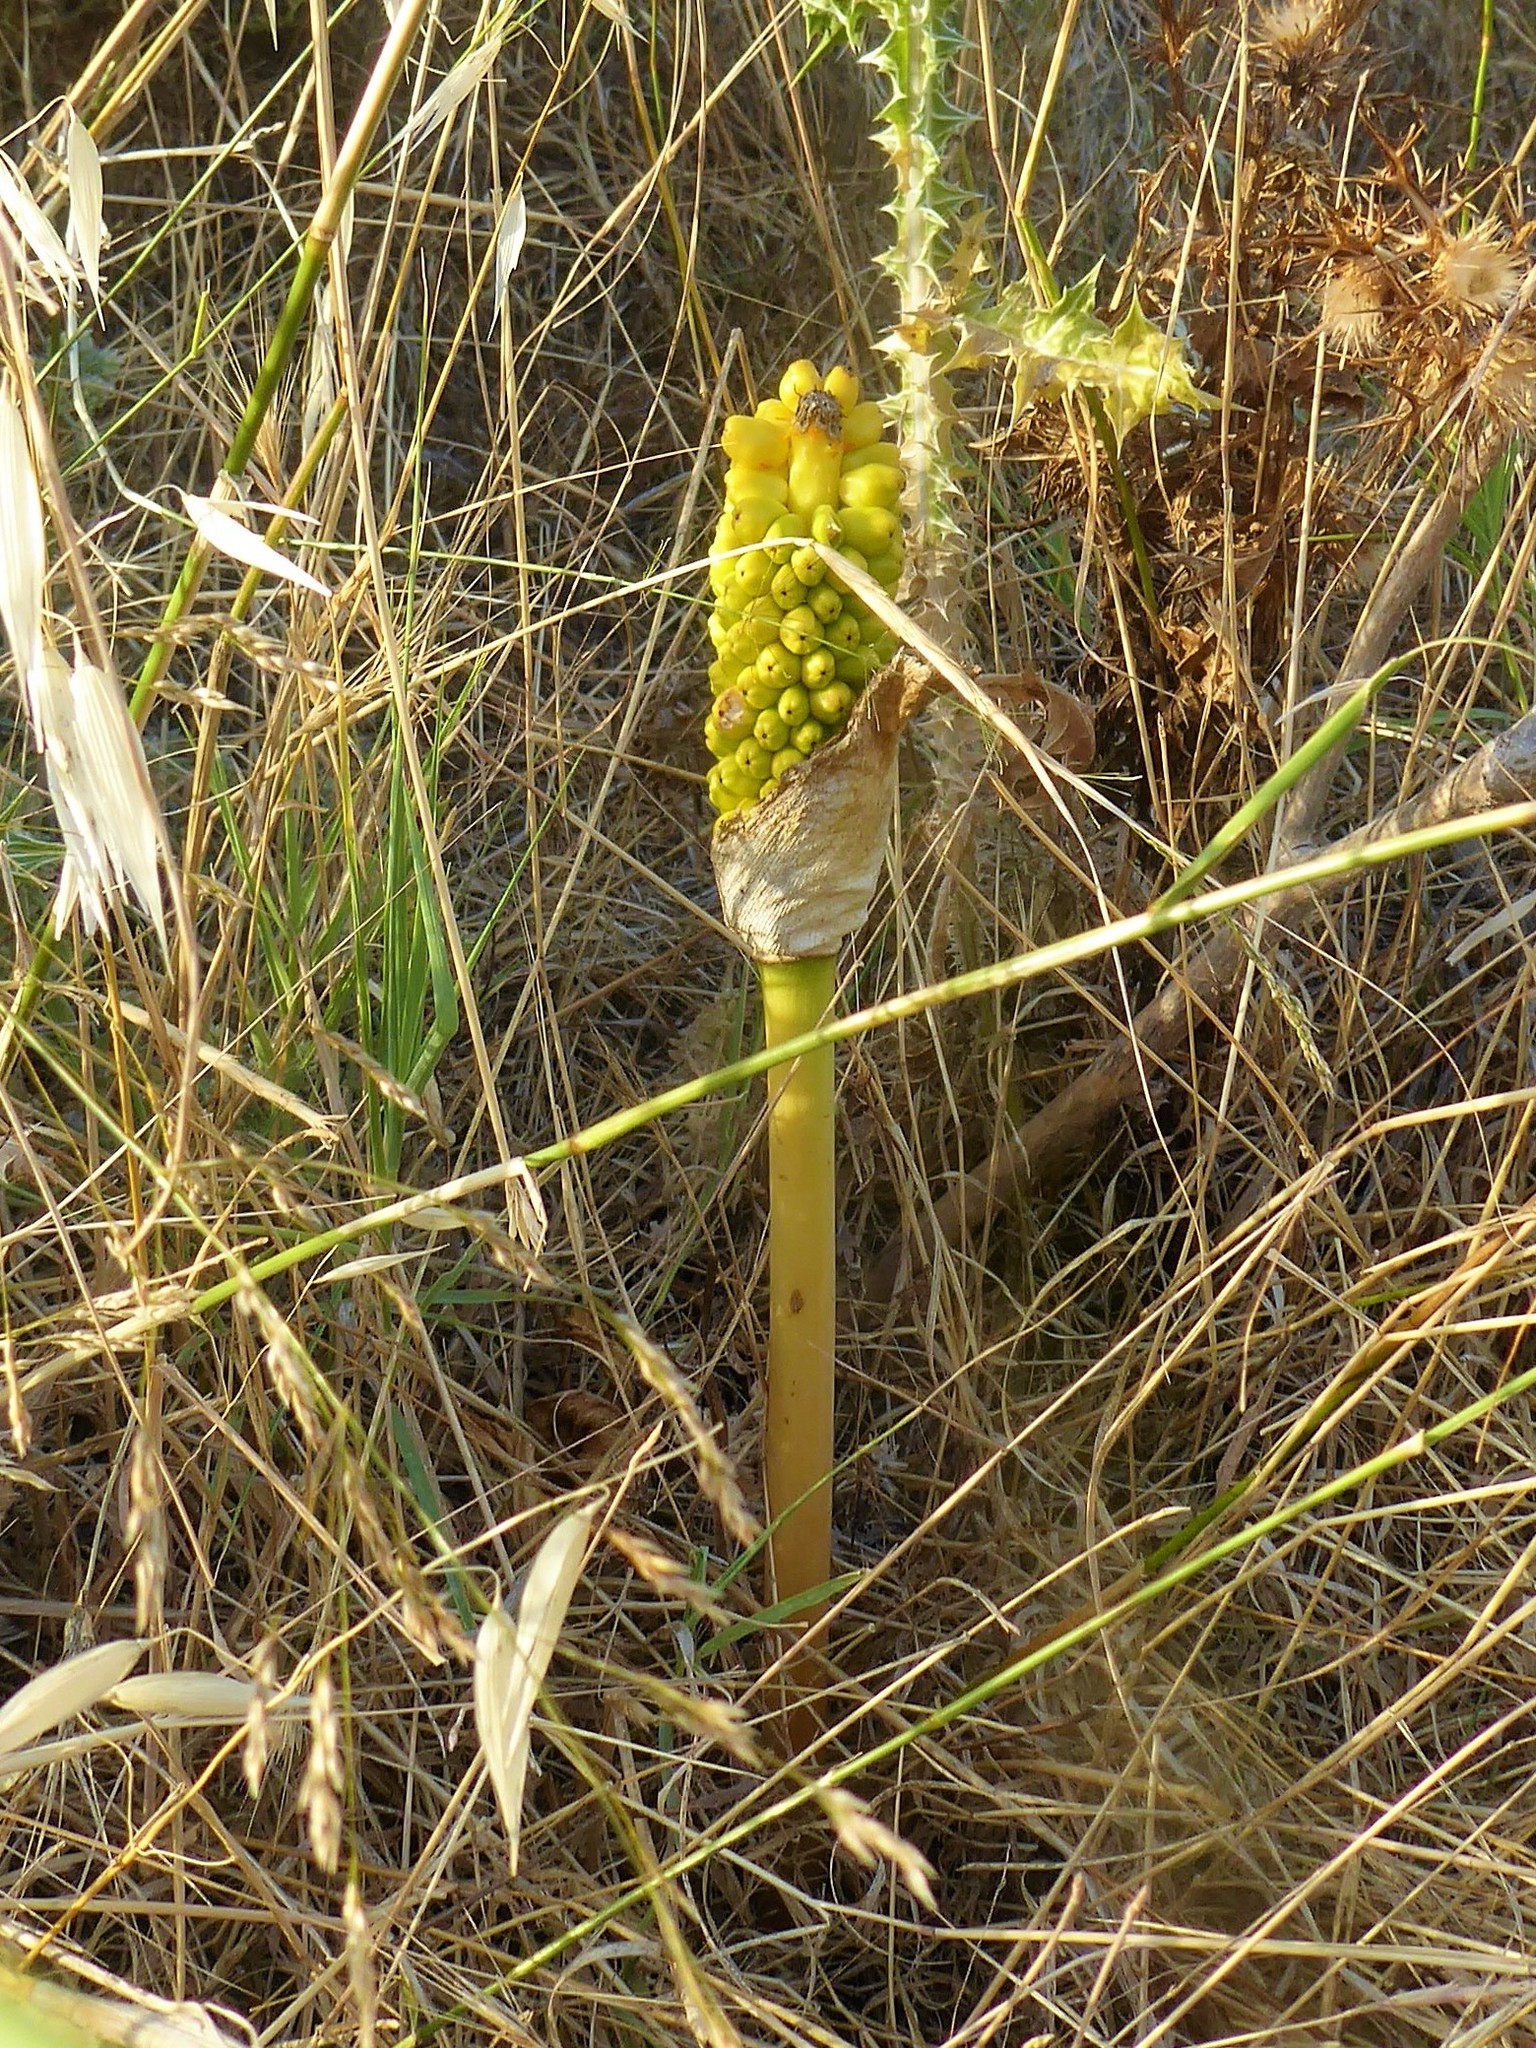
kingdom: Plantae
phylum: Tracheophyta
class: Liliopsida
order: Alismatales
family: Araceae
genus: Dracunculus
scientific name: Dracunculus vulgaris
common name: Dragon arum
